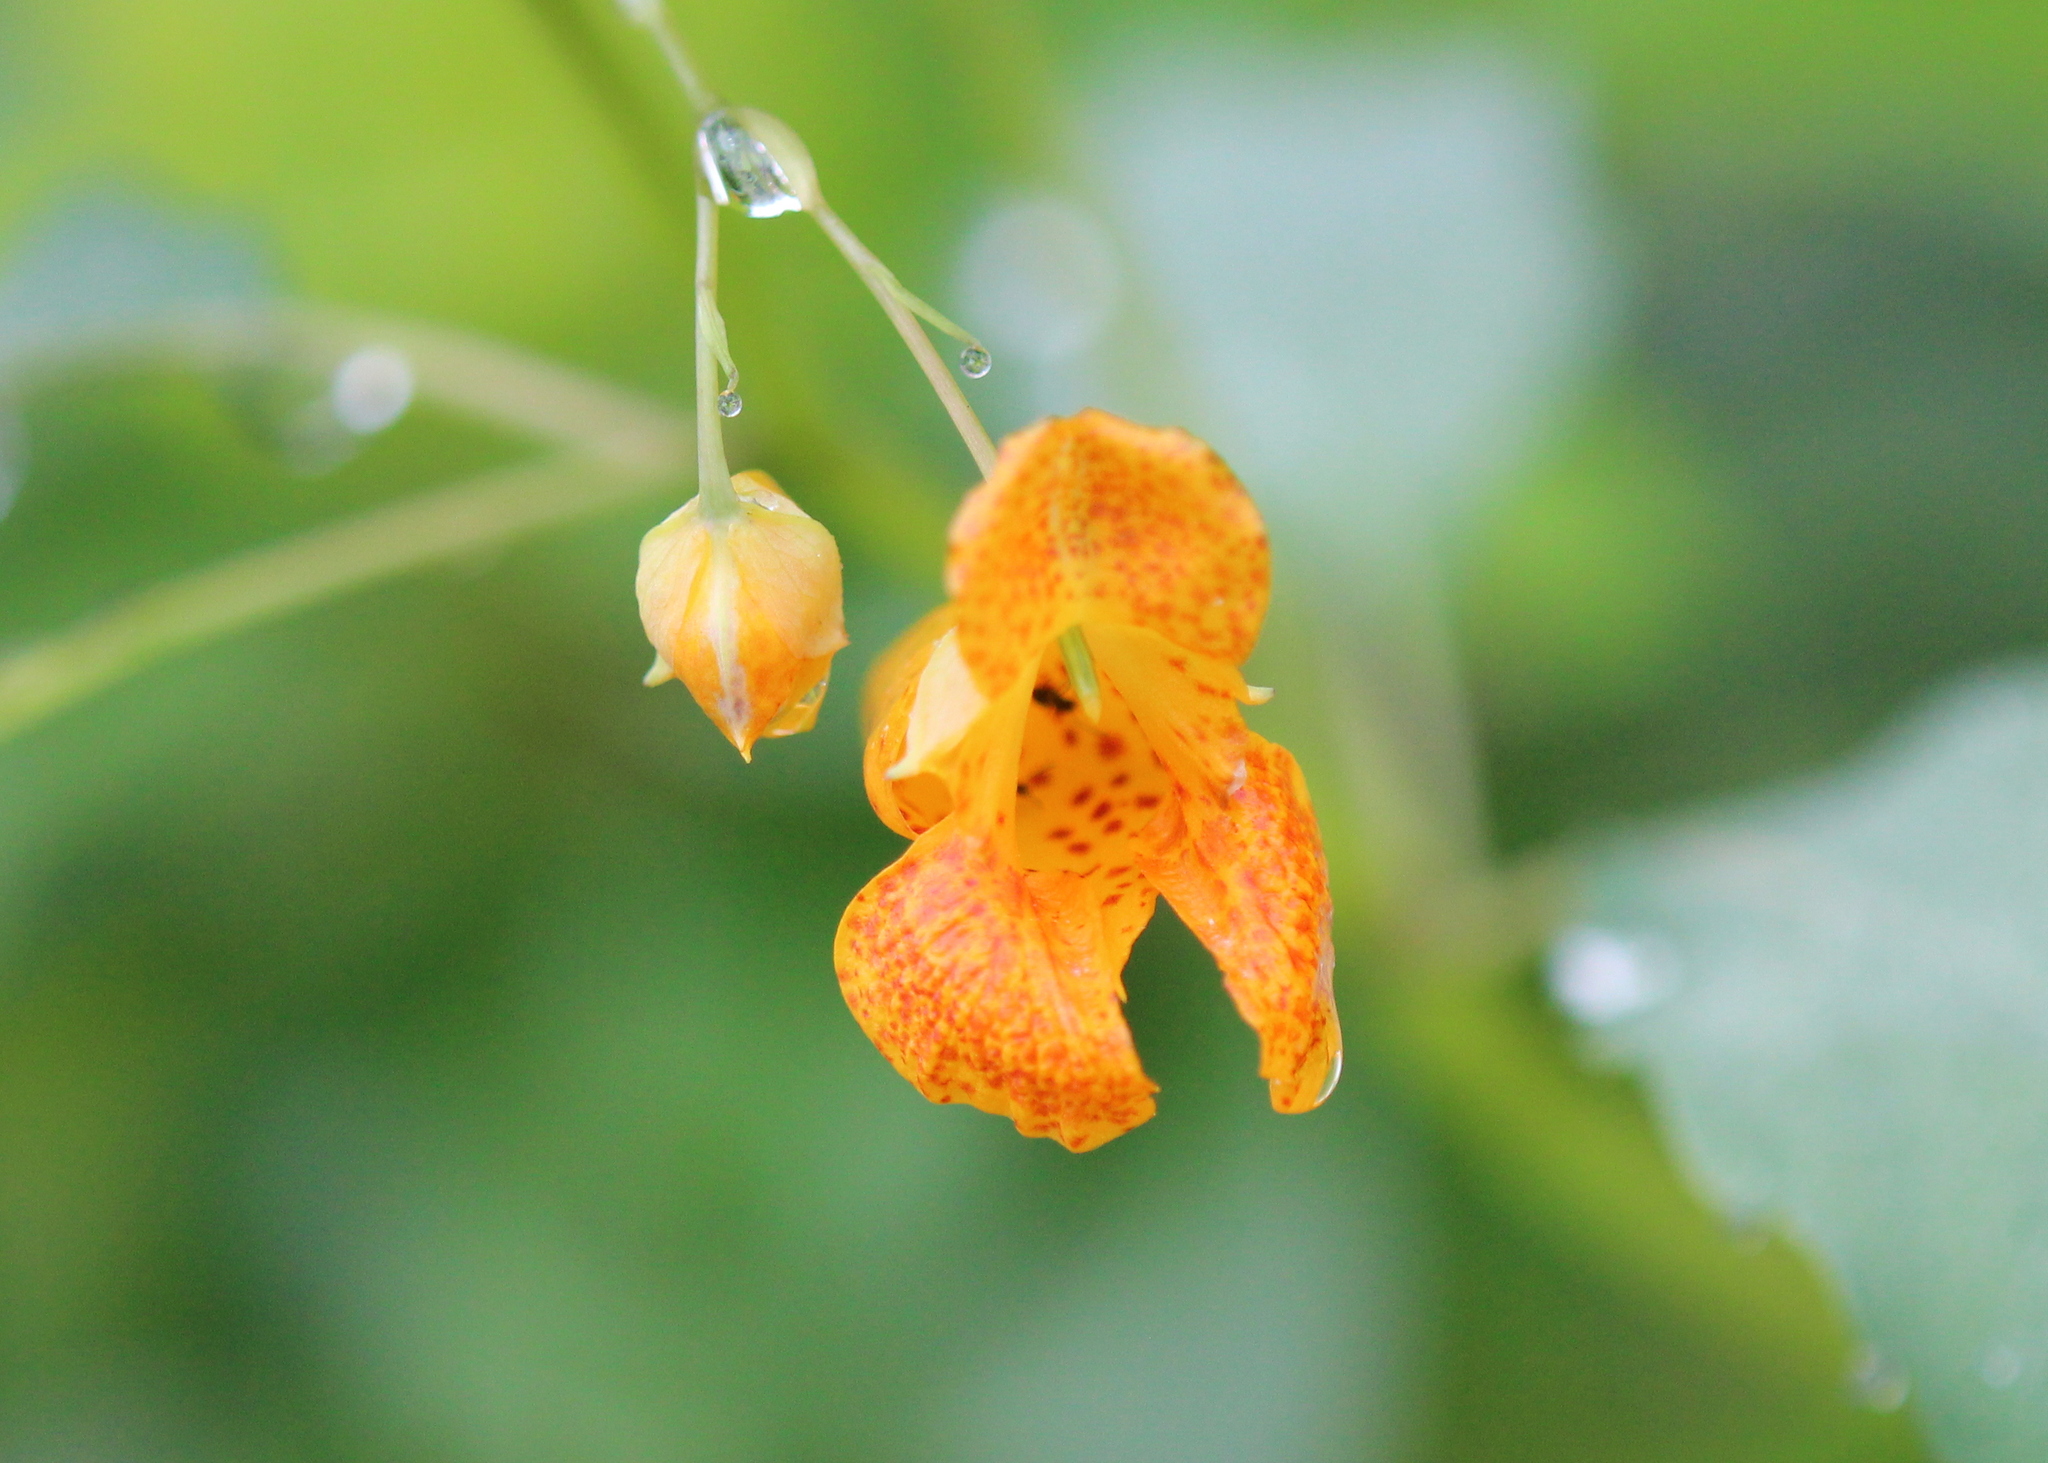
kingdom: Plantae
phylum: Tracheophyta
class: Magnoliopsida
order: Ericales
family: Balsaminaceae
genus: Impatiens
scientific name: Impatiens capensis
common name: Orange balsam
